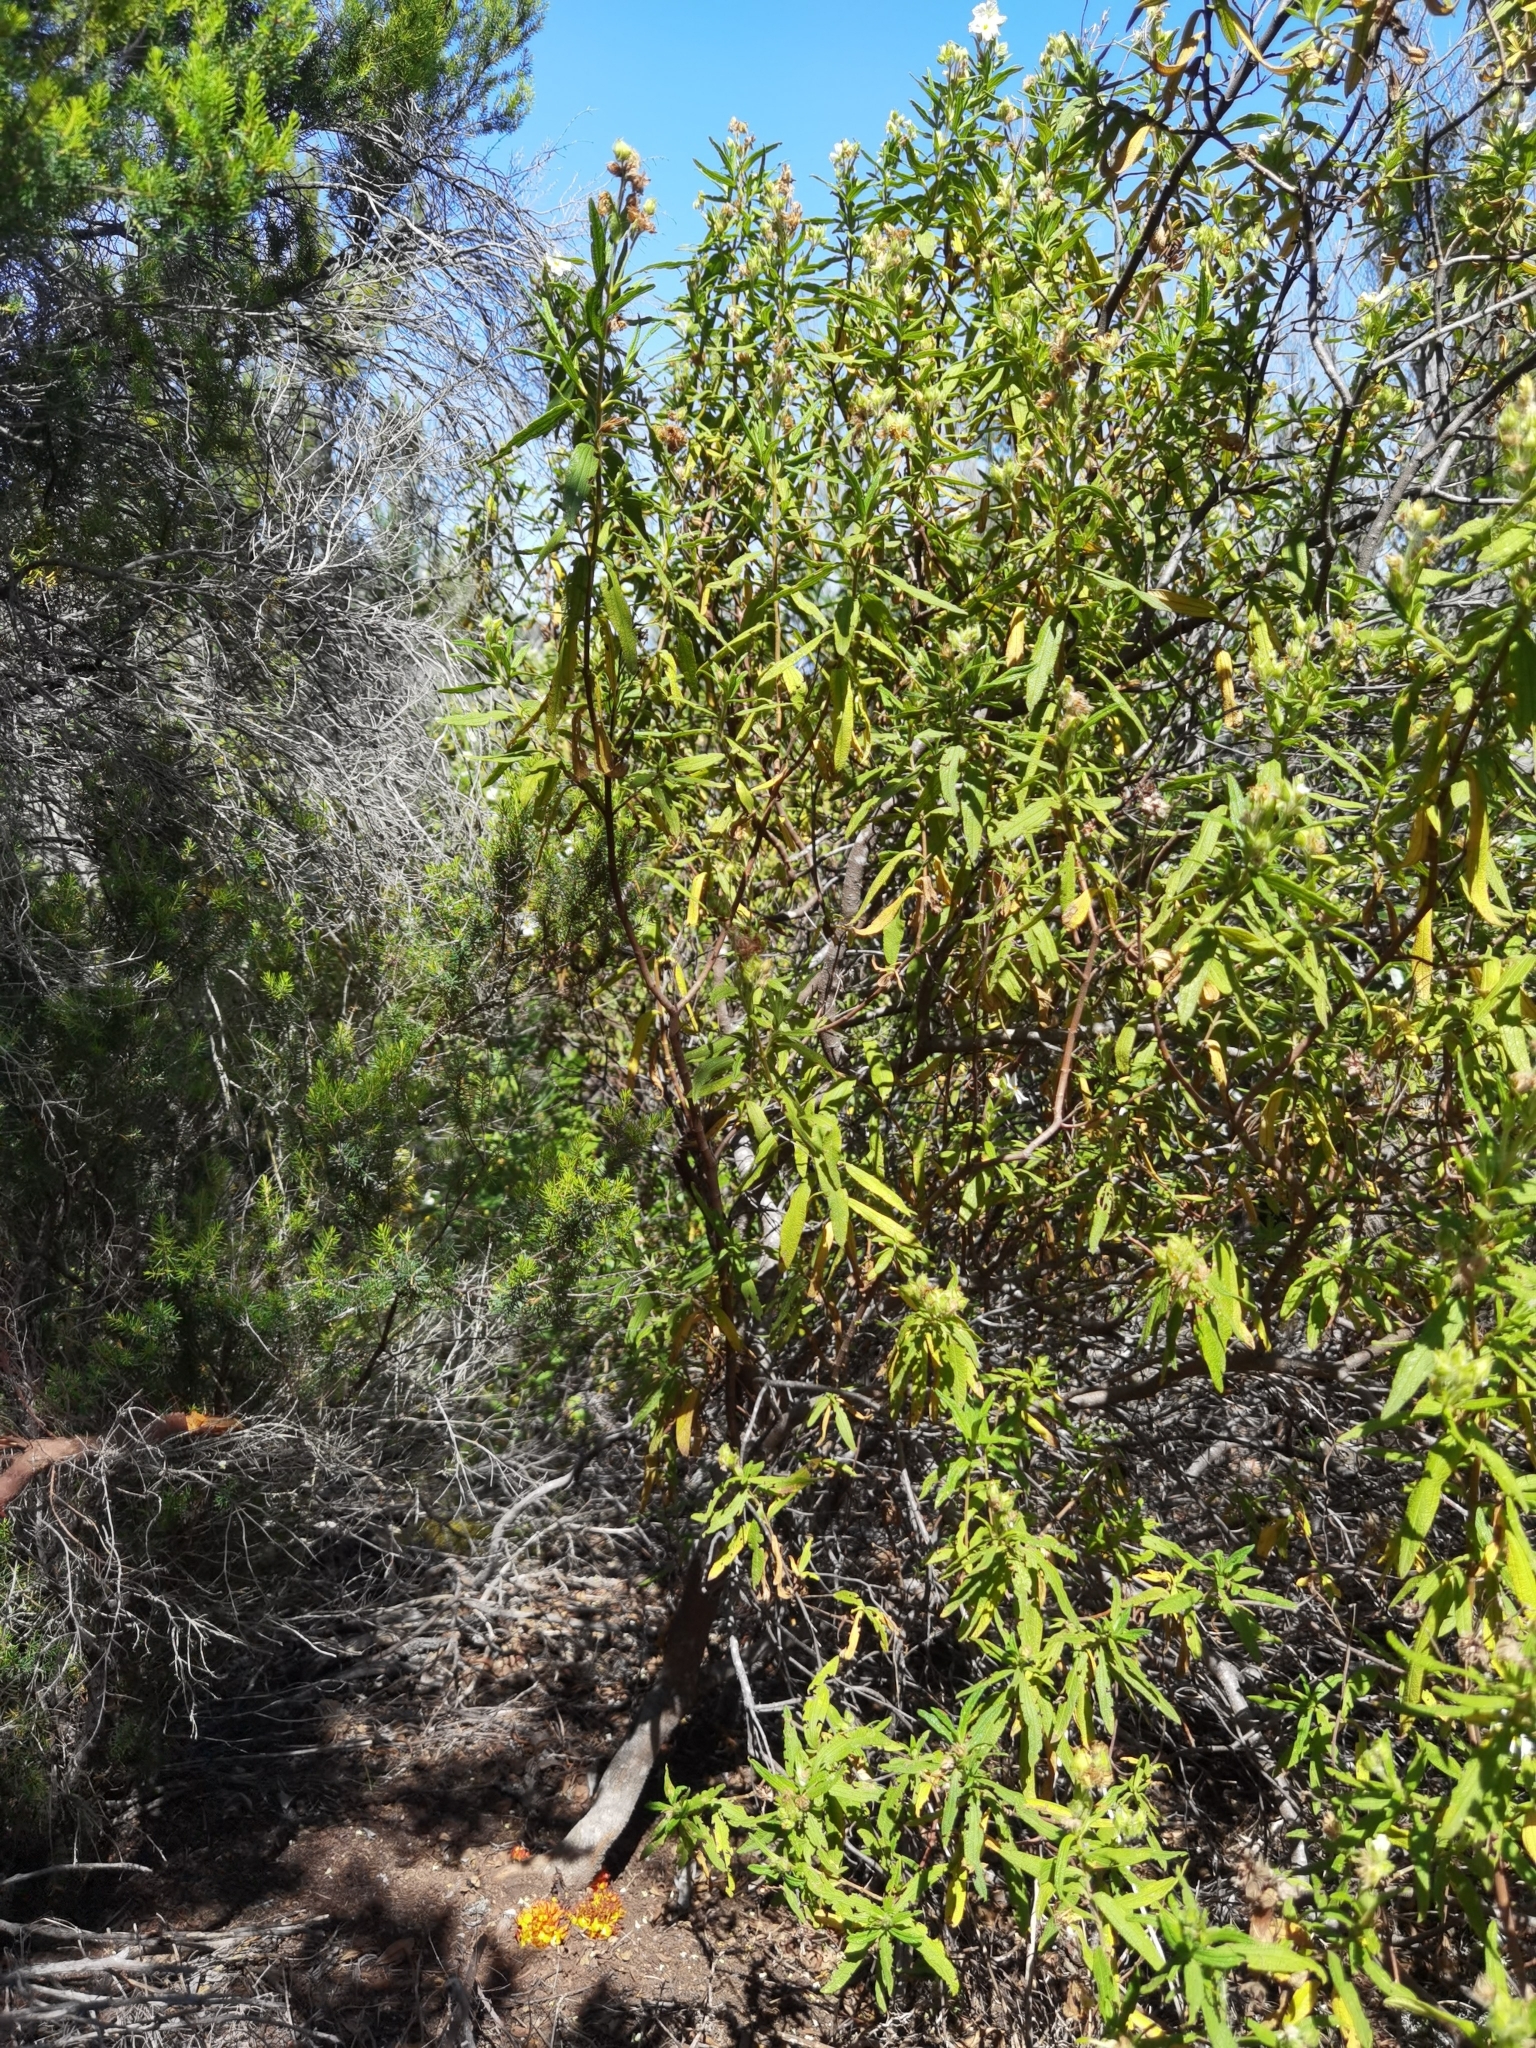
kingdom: Plantae
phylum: Tracheophyta
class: Magnoliopsida
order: Malvales
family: Cytinaceae
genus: Cytinus
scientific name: Cytinus hypocistis
